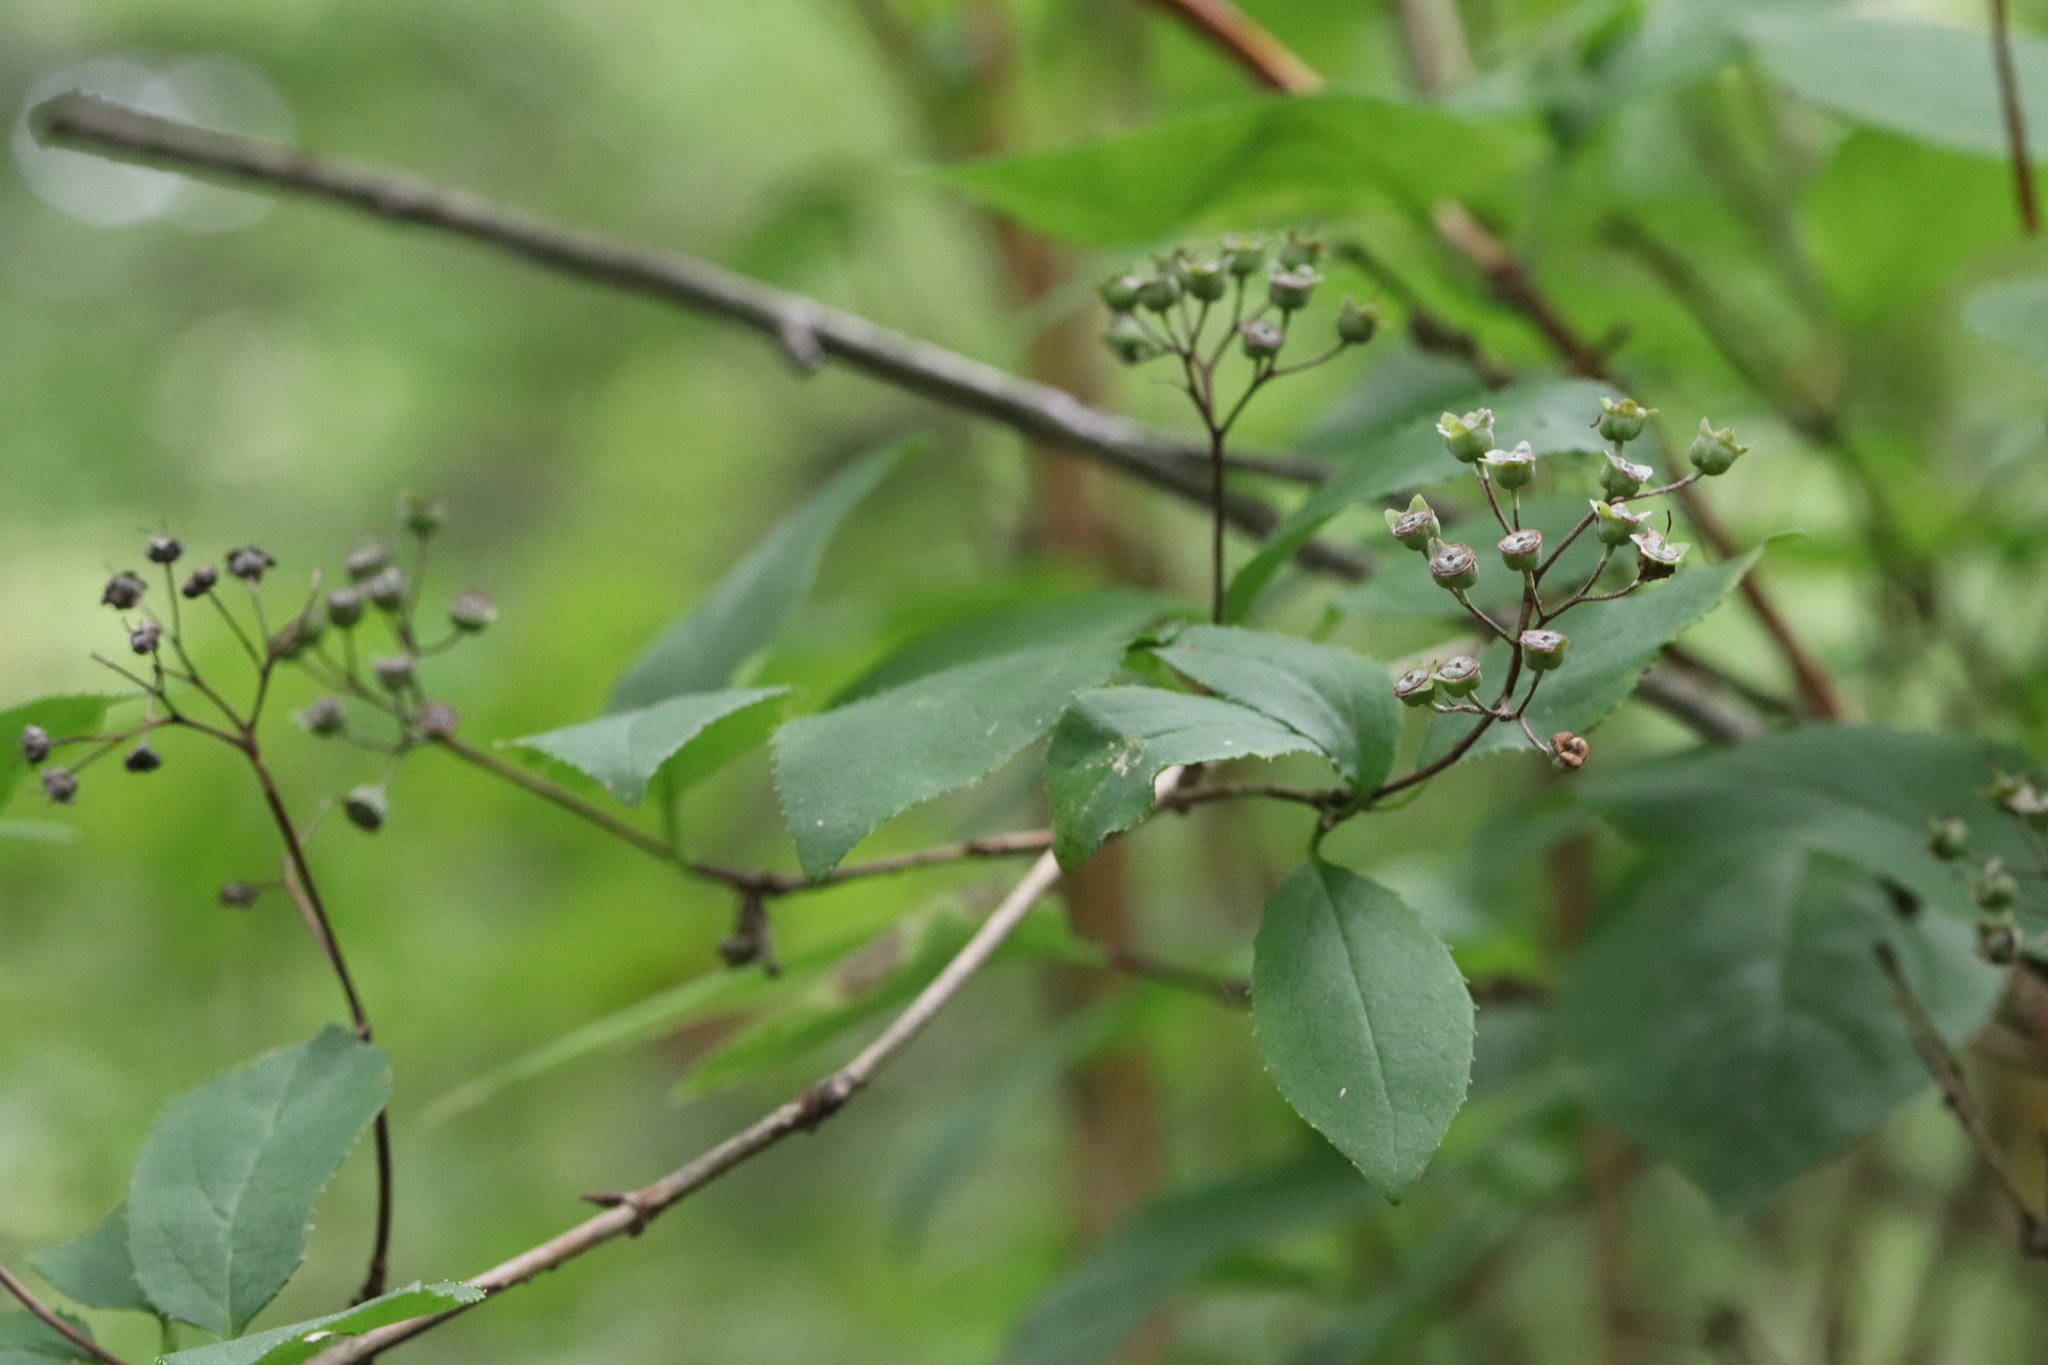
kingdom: Plantae
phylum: Tracheophyta
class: Magnoliopsida
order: Cornales
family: Hydrangeaceae
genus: Deutzia
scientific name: Deutzia parviflora
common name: Mongolian pride-of-rochester
